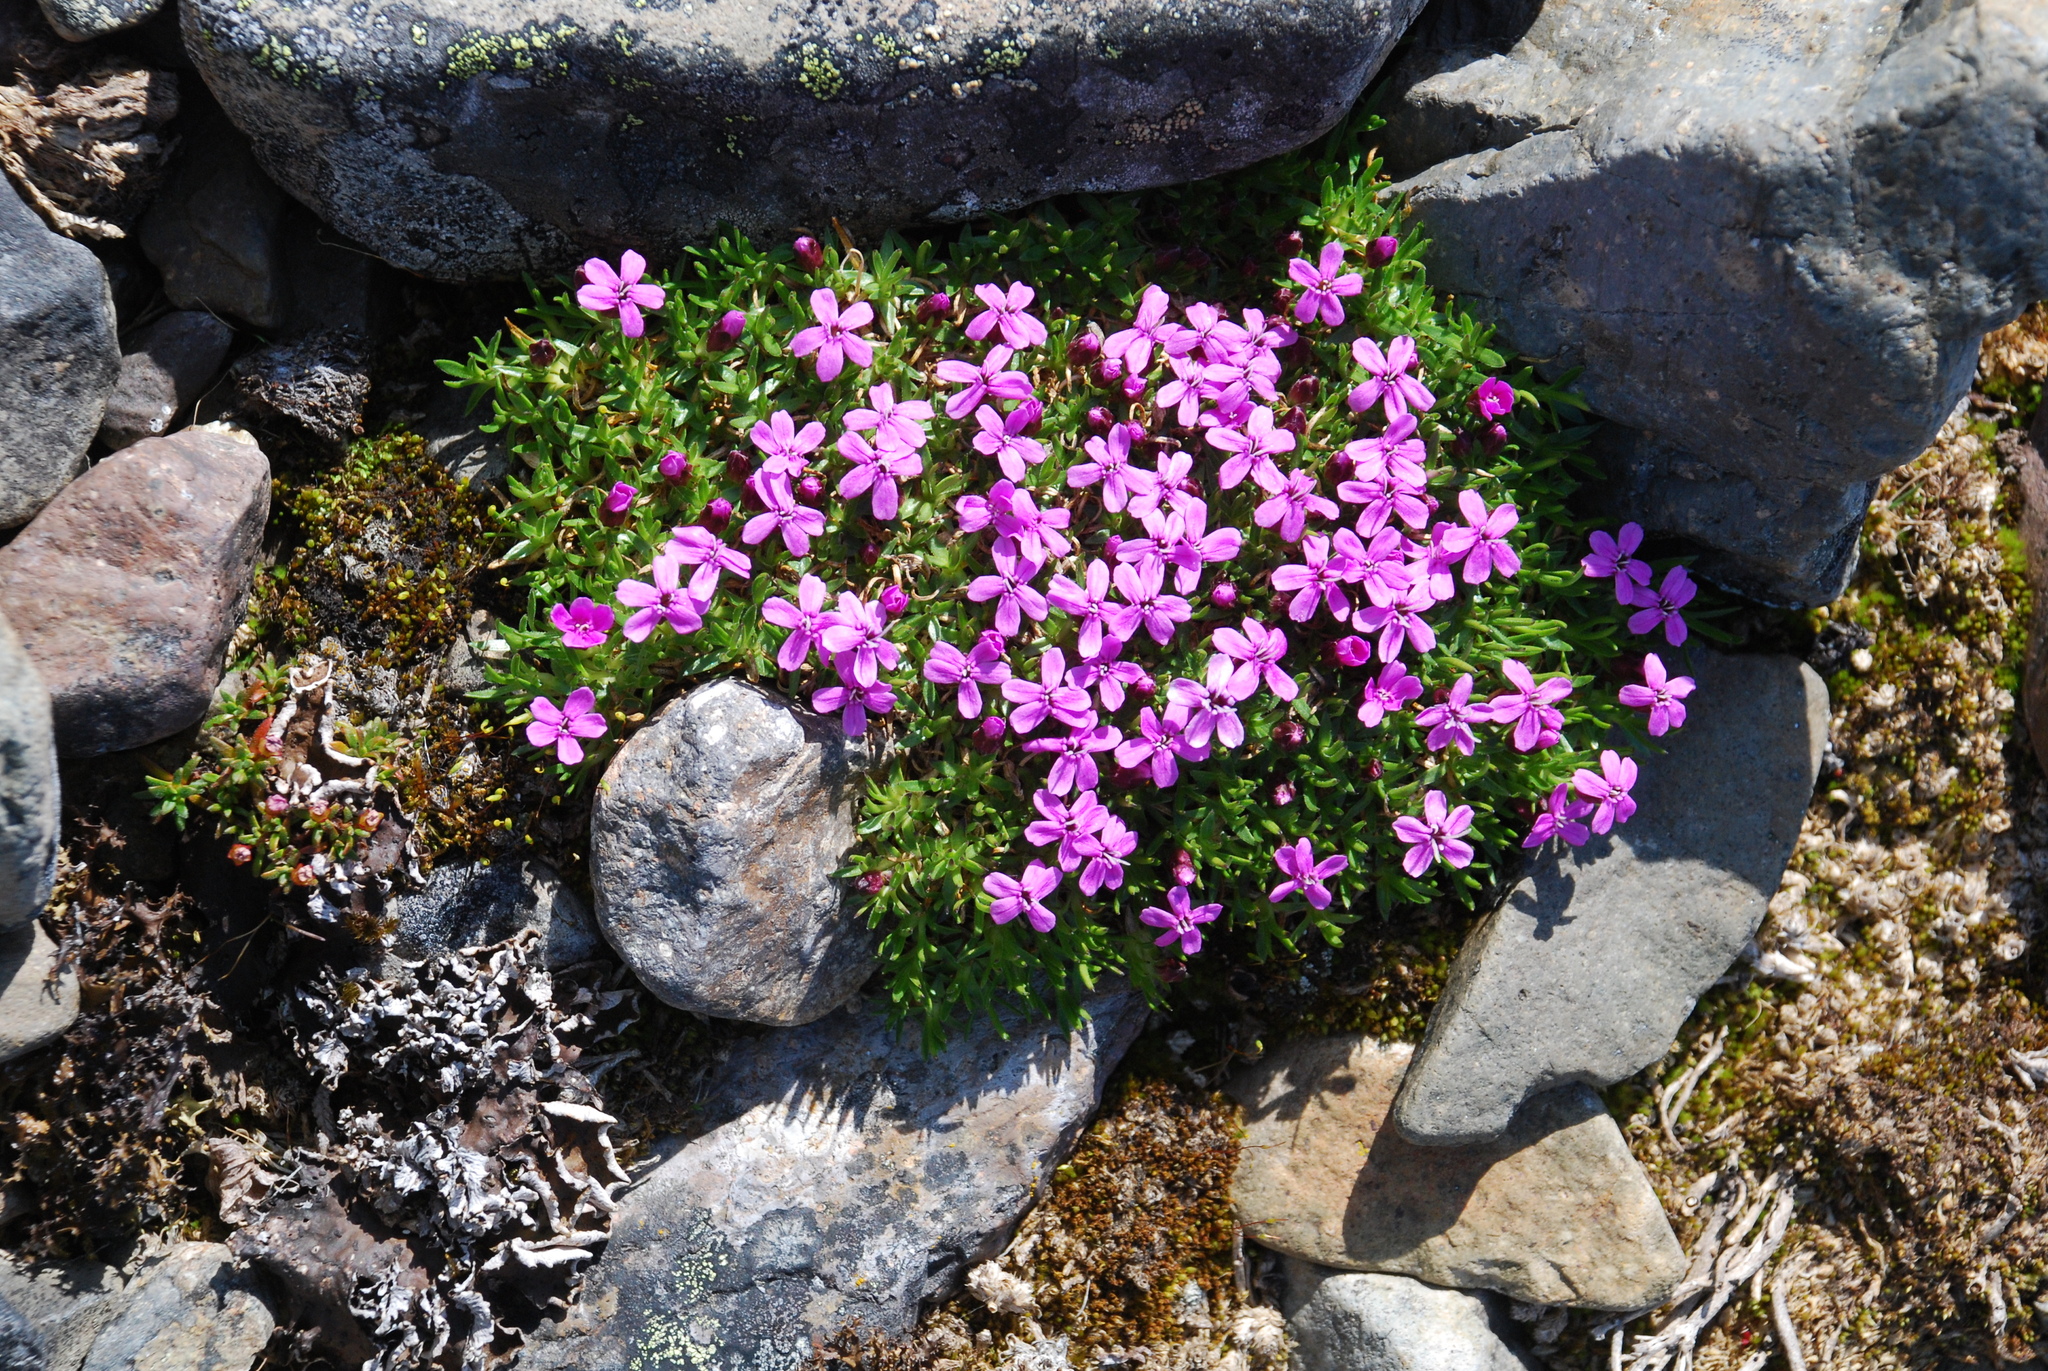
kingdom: Plantae
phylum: Tracheophyta
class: Magnoliopsida
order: Caryophyllales
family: Caryophyllaceae
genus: Silene
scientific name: Silene acaulis
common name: Moss campion
